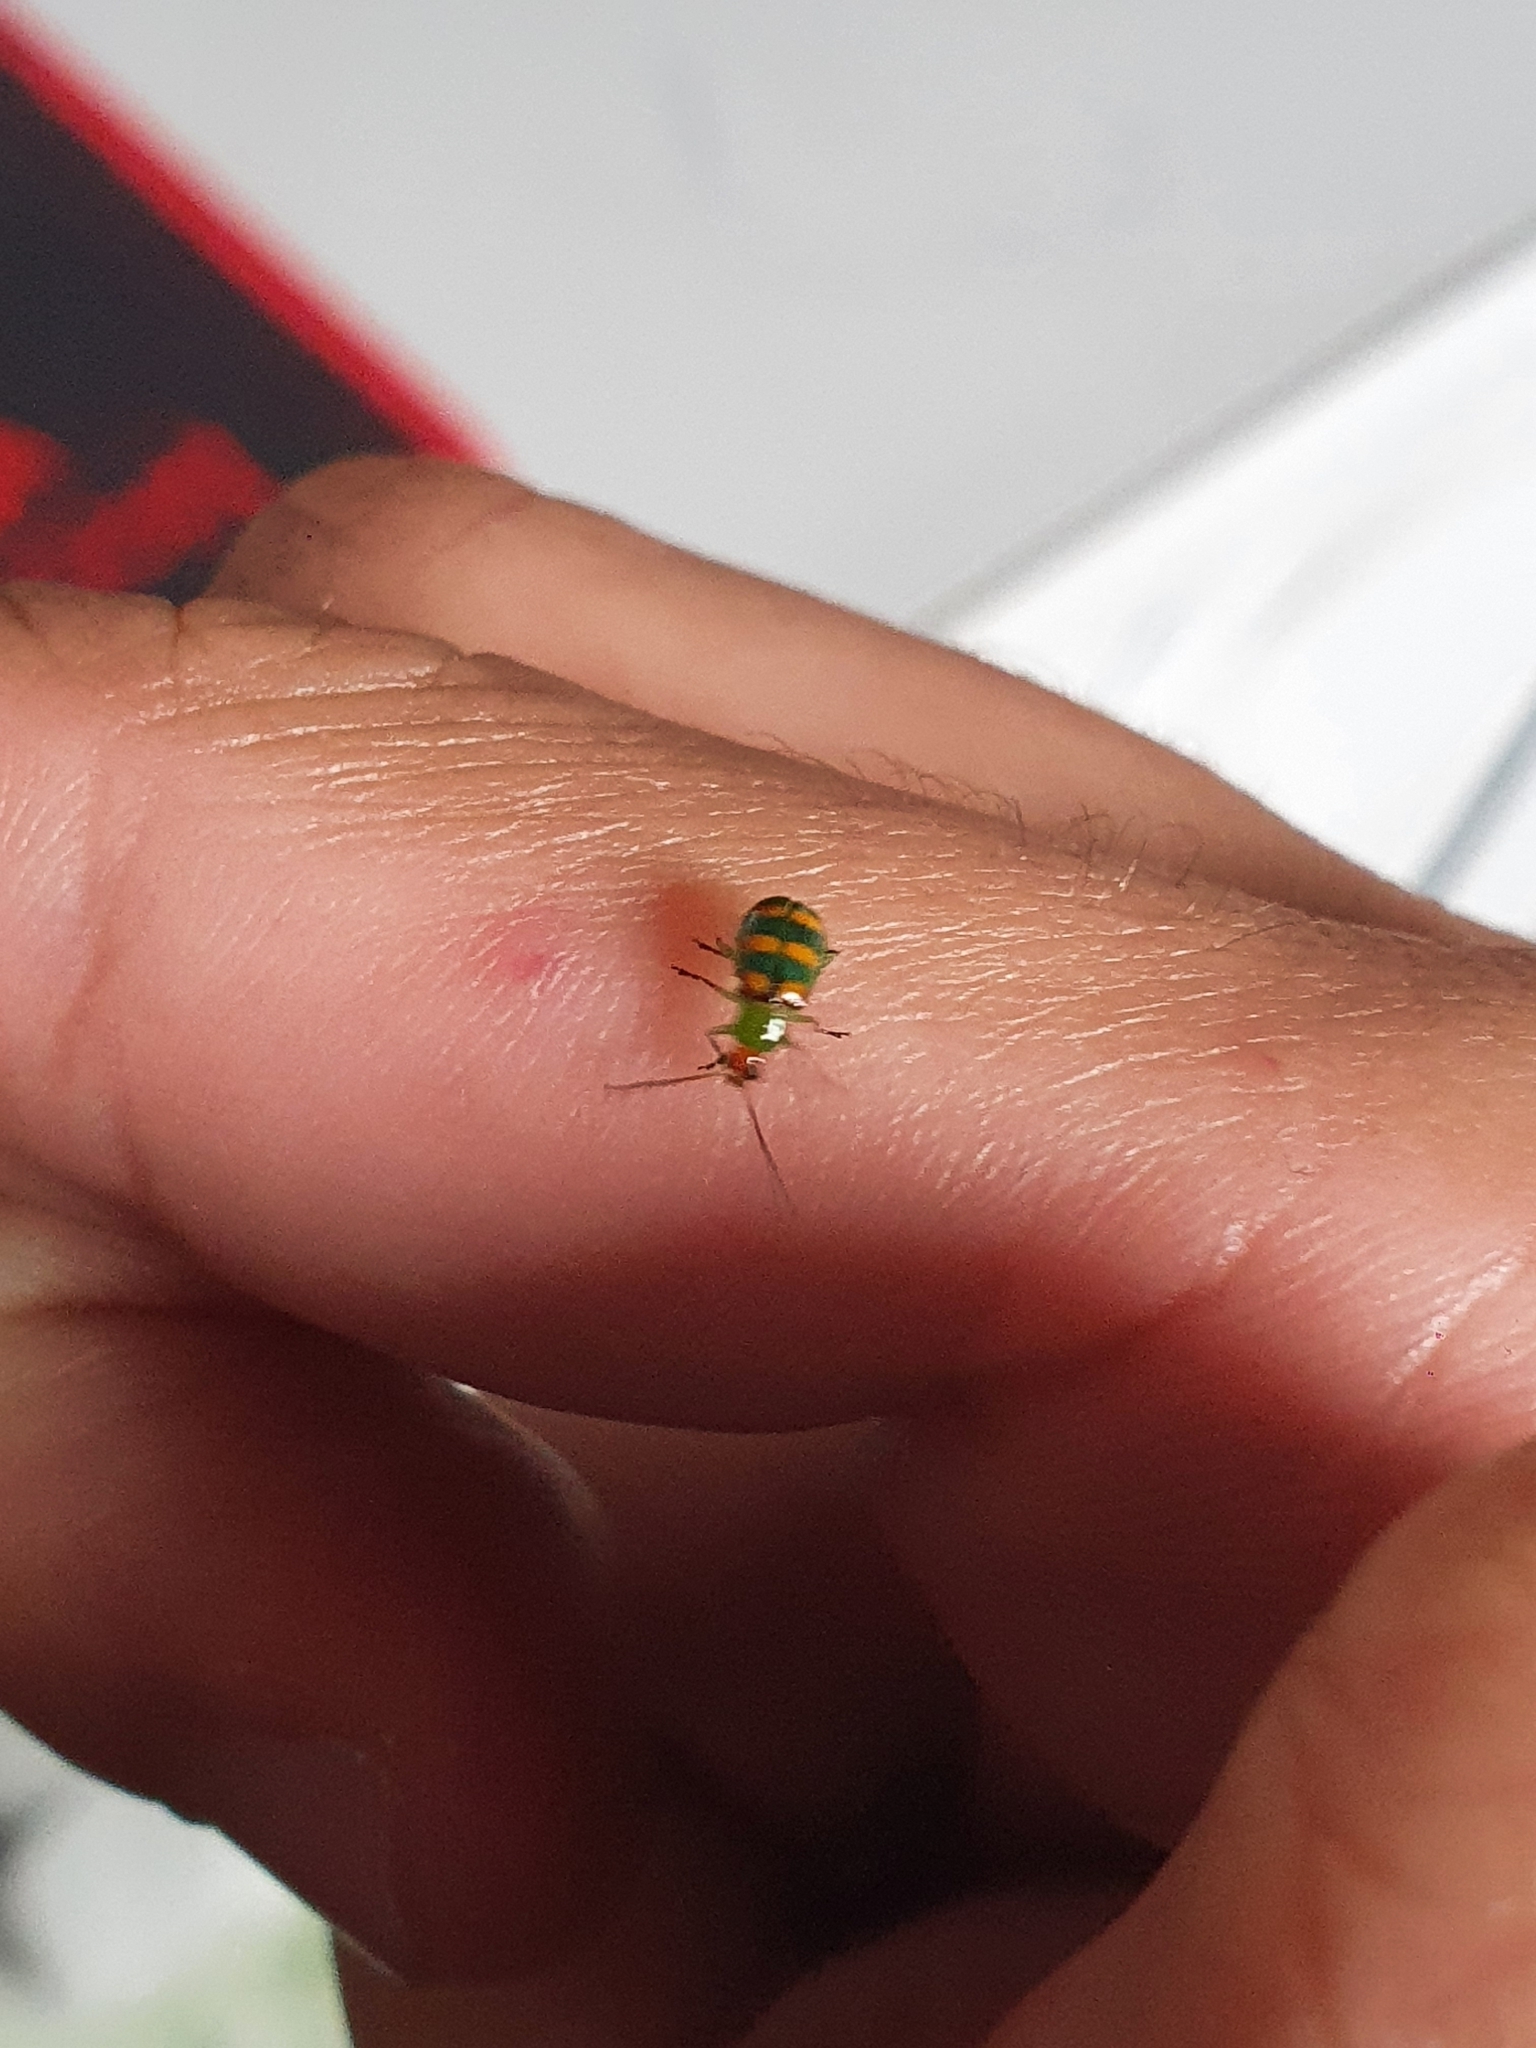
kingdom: Animalia
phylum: Arthropoda
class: Insecta
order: Coleoptera
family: Chrysomelidae
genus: Diabrotica
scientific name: Diabrotica speciosa
